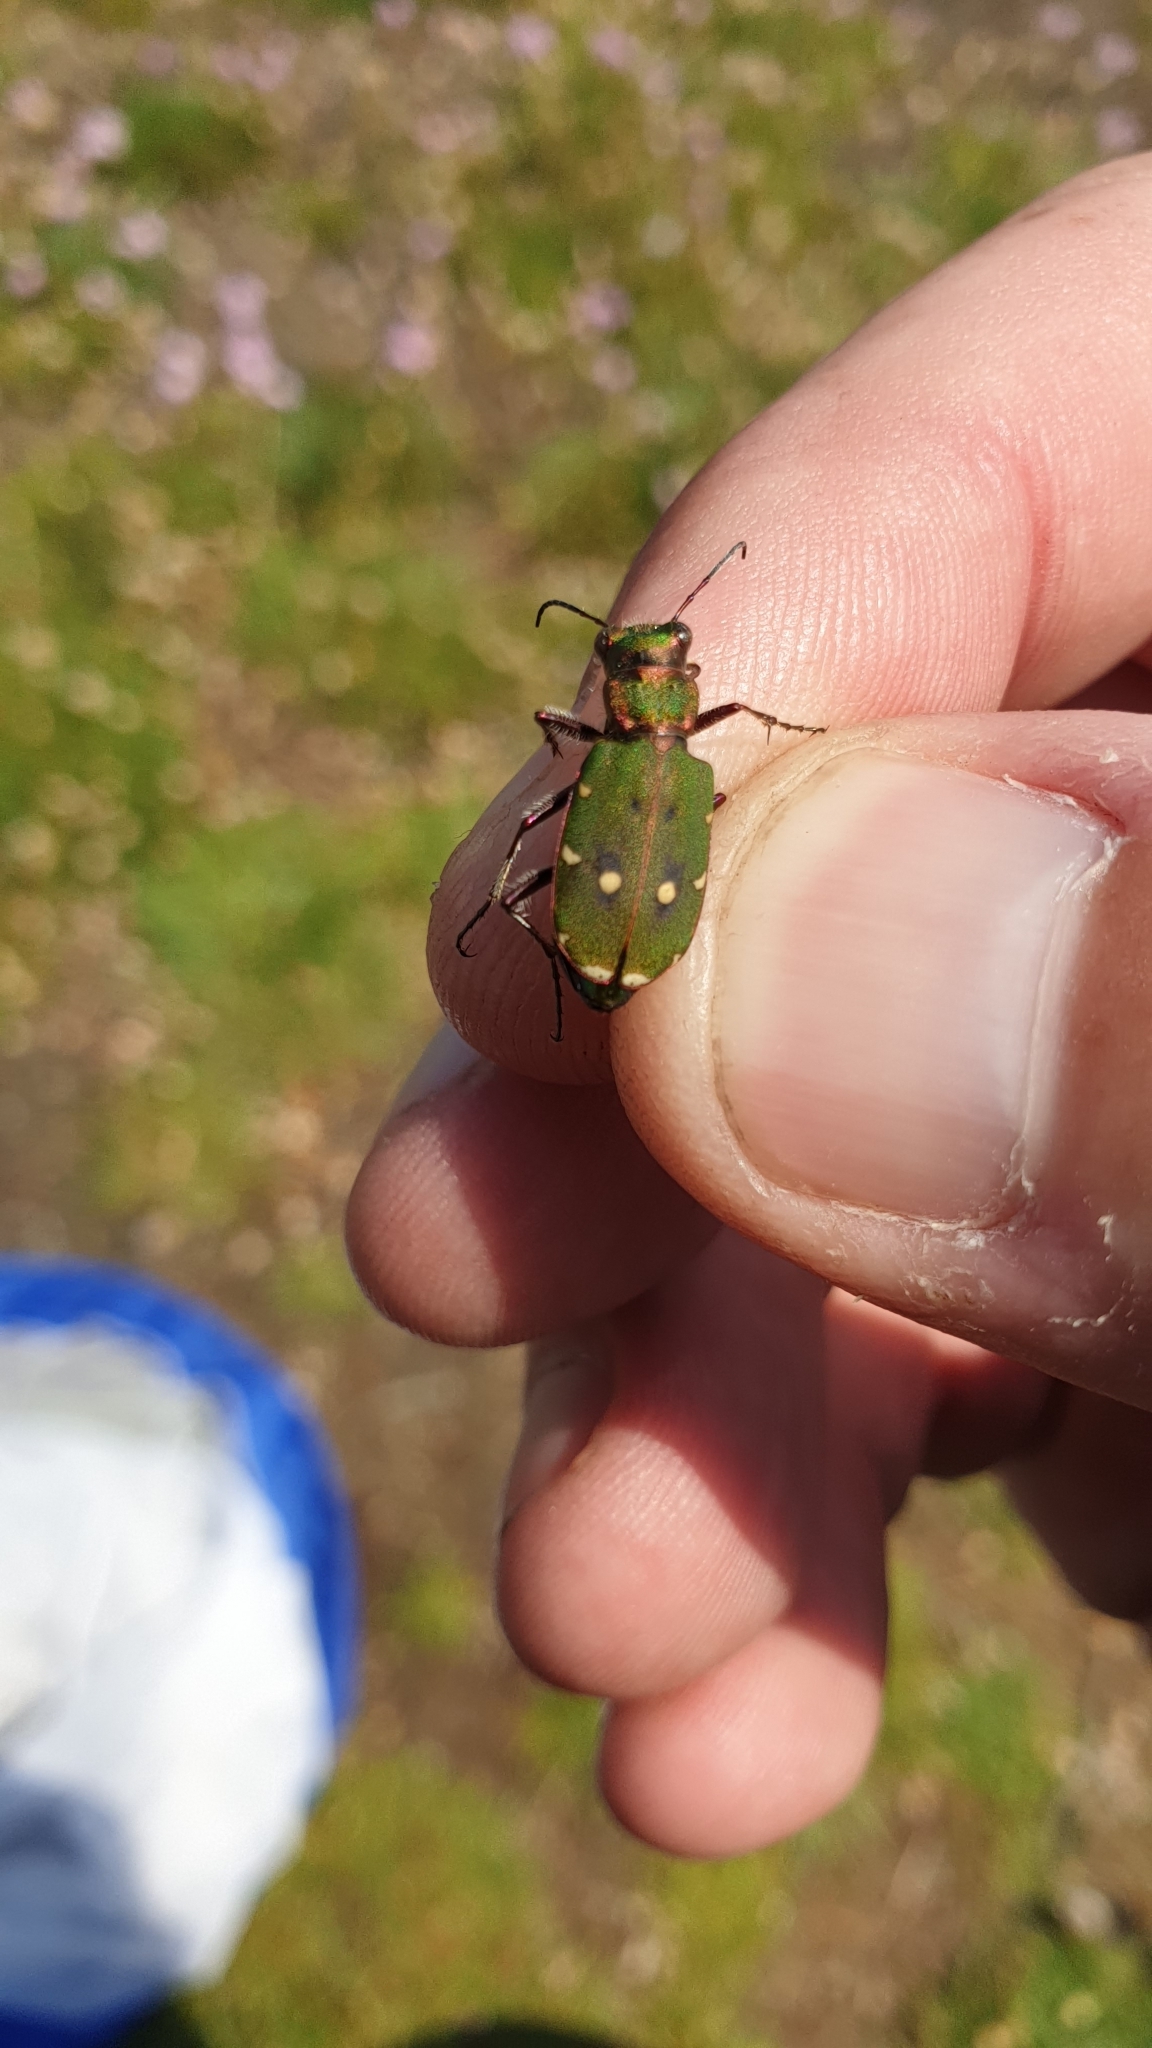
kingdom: Animalia
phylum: Arthropoda
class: Insecta
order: Coleoptera
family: Carabidae
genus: Cicindela
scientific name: Cicindela campestris
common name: Common tiger beetle
